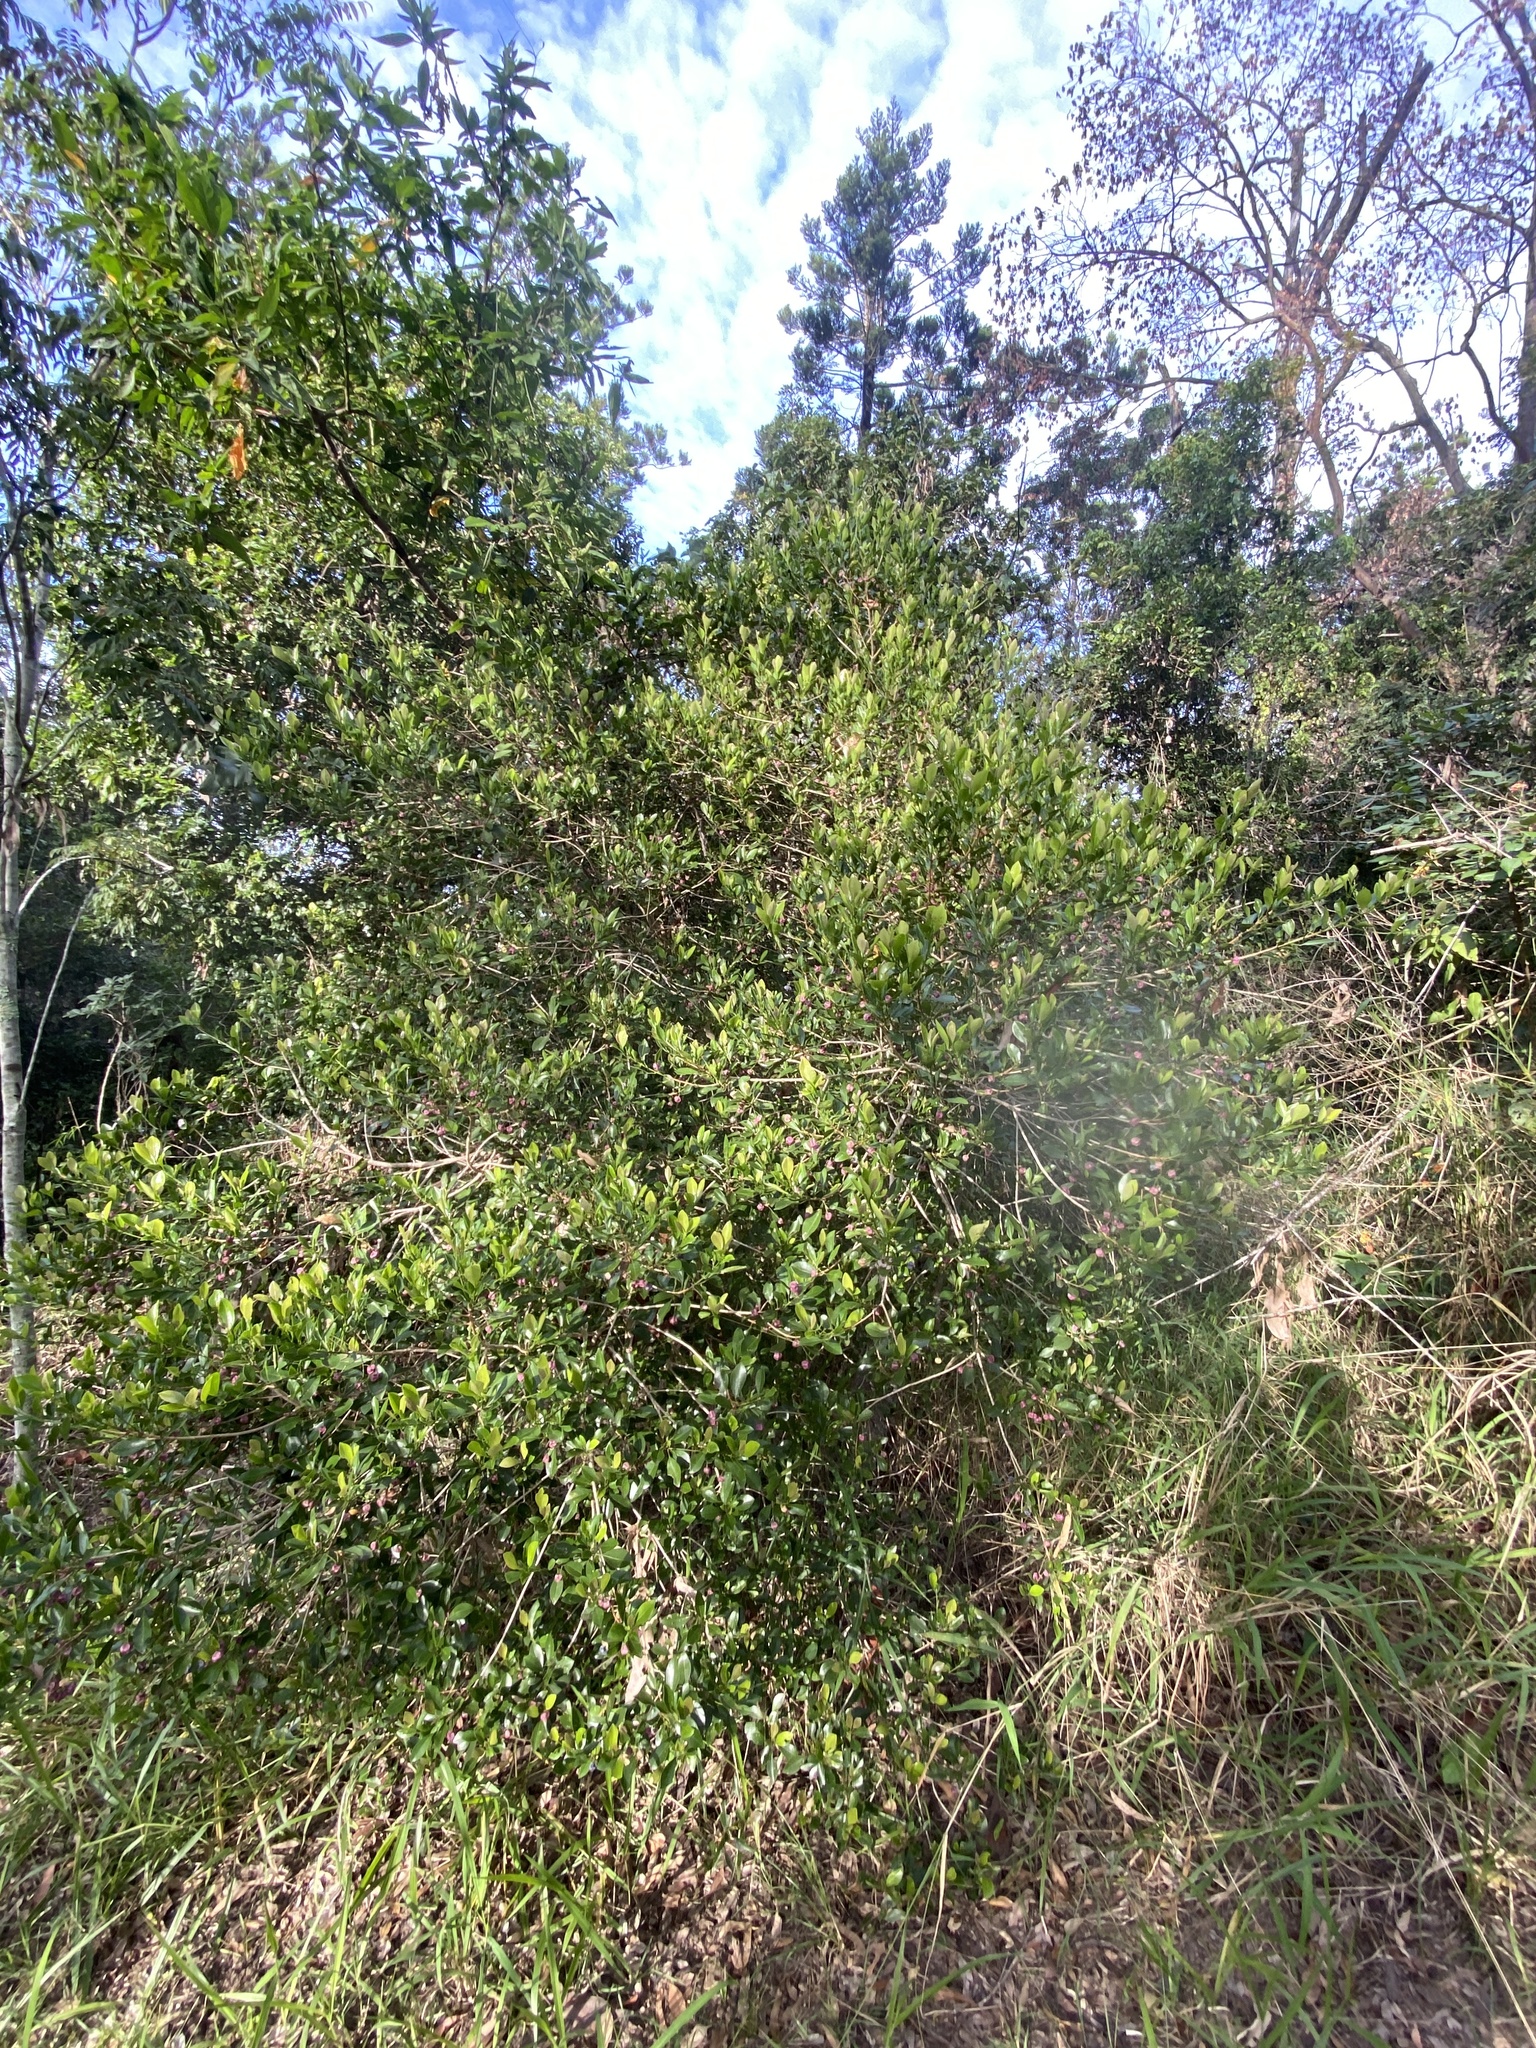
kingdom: Plantae
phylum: Tracheophyta
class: Magnoliopsida
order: Sapindales
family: Rutaceae
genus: Acronychia
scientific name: Acronychia laevis
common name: Hard aspen
